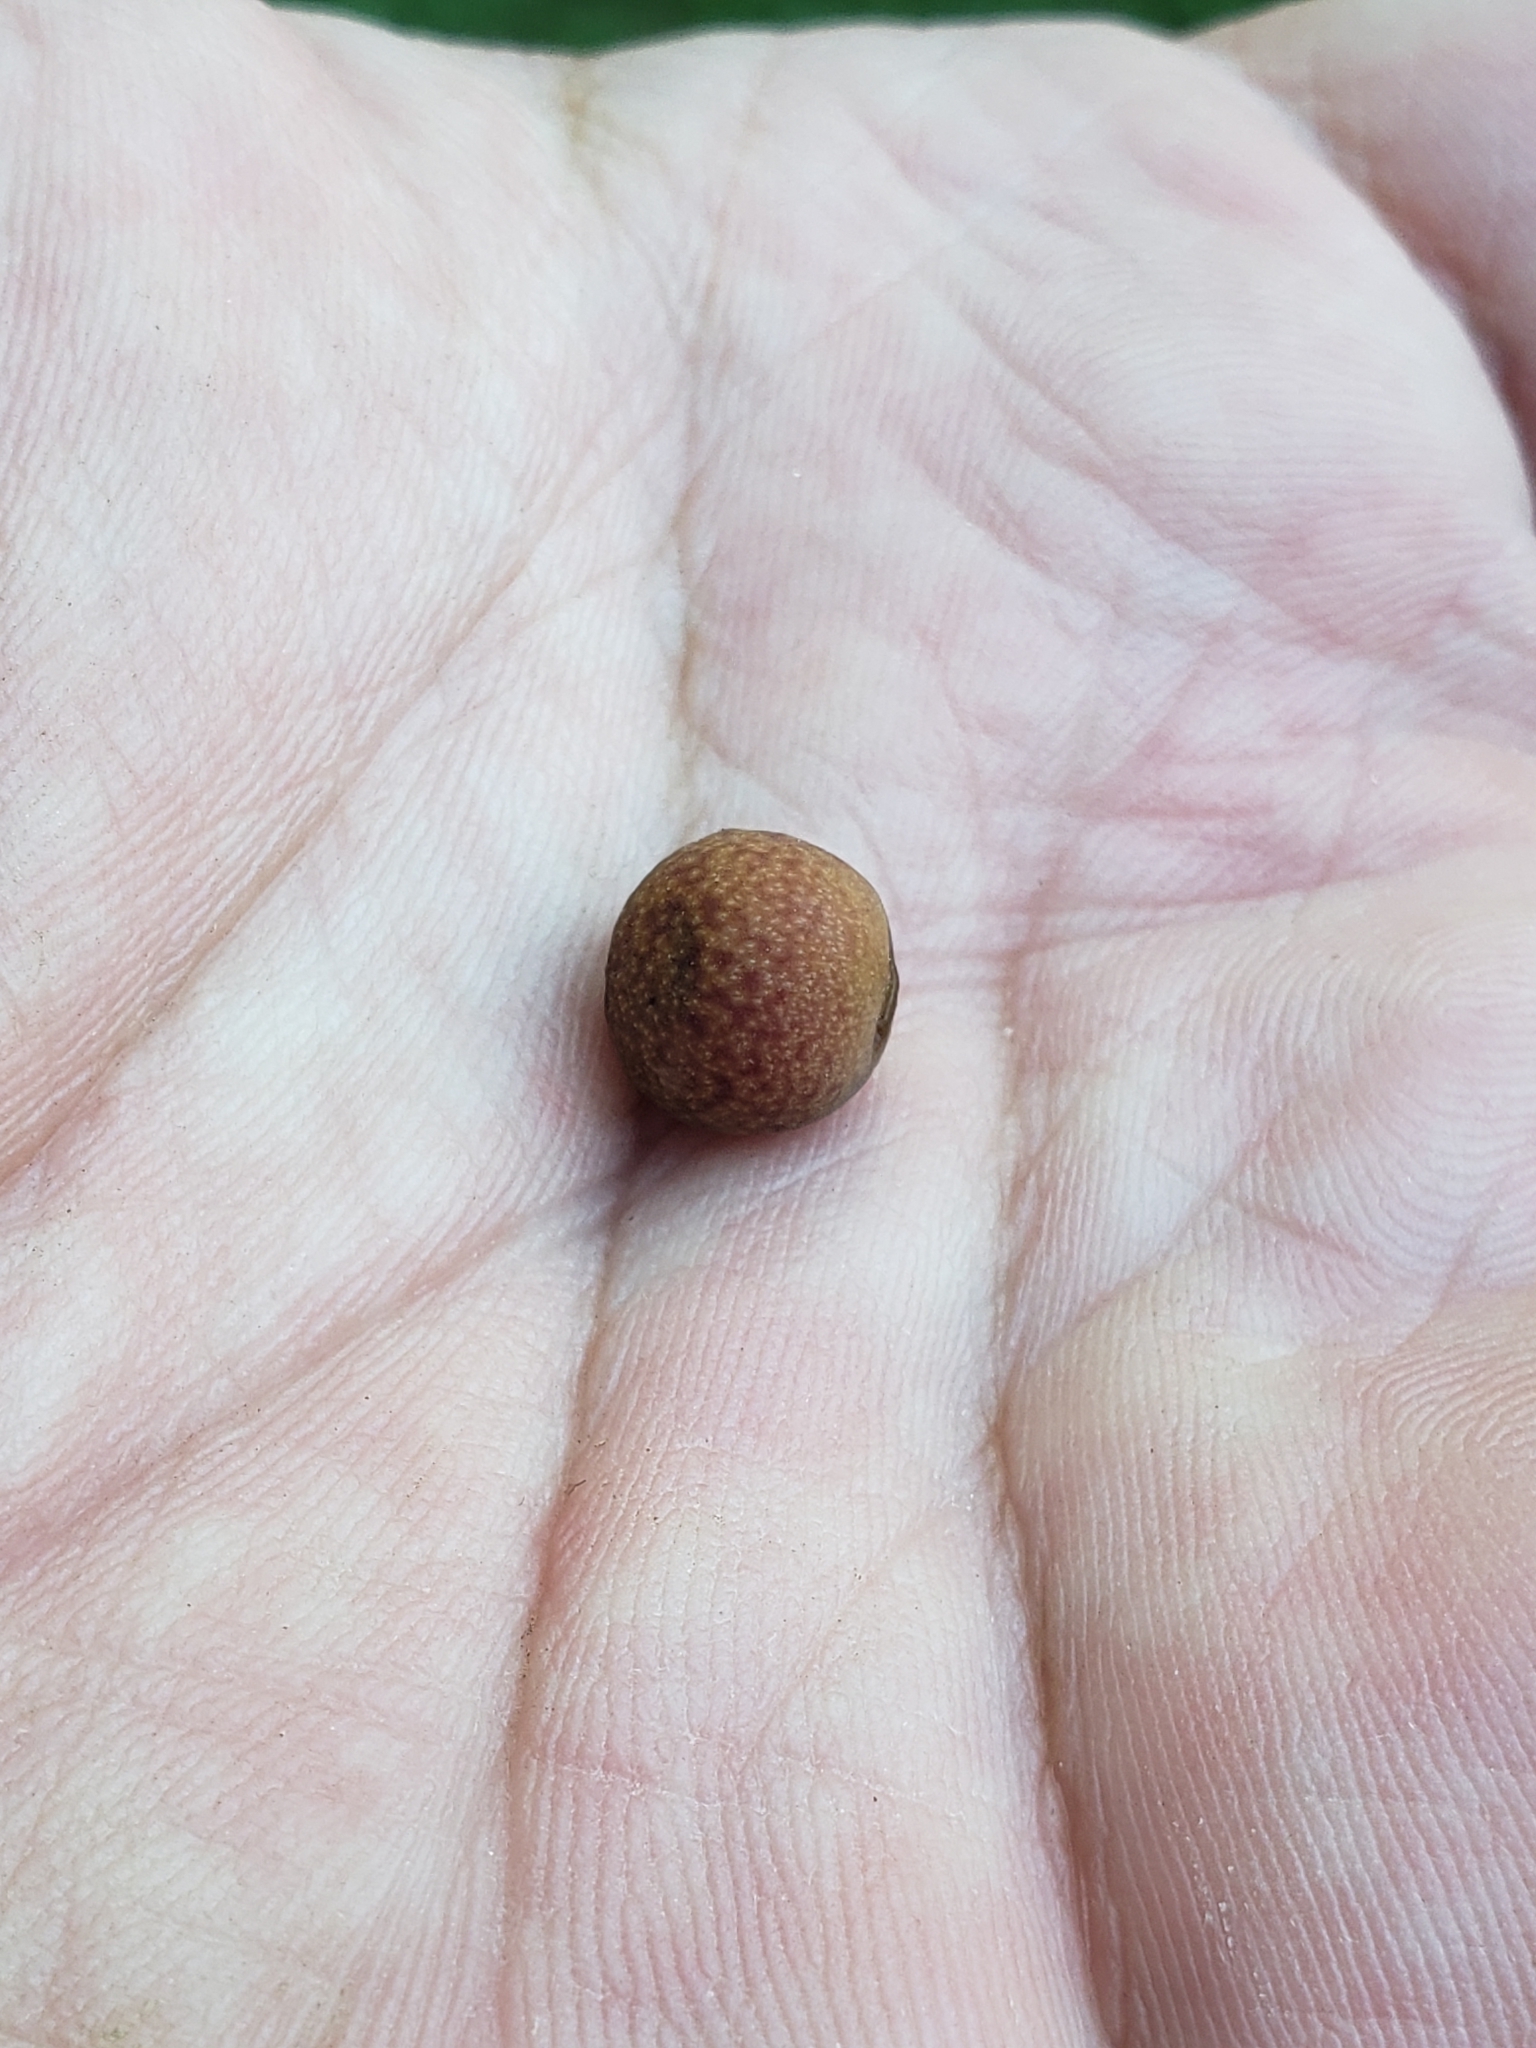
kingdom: Animalia
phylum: Arthropoda
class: Insecta
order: Hymenoptera
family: Cynipidae
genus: Kokkocynips
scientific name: Kokkocynips imbricariae
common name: Banded bullet gall wasp
